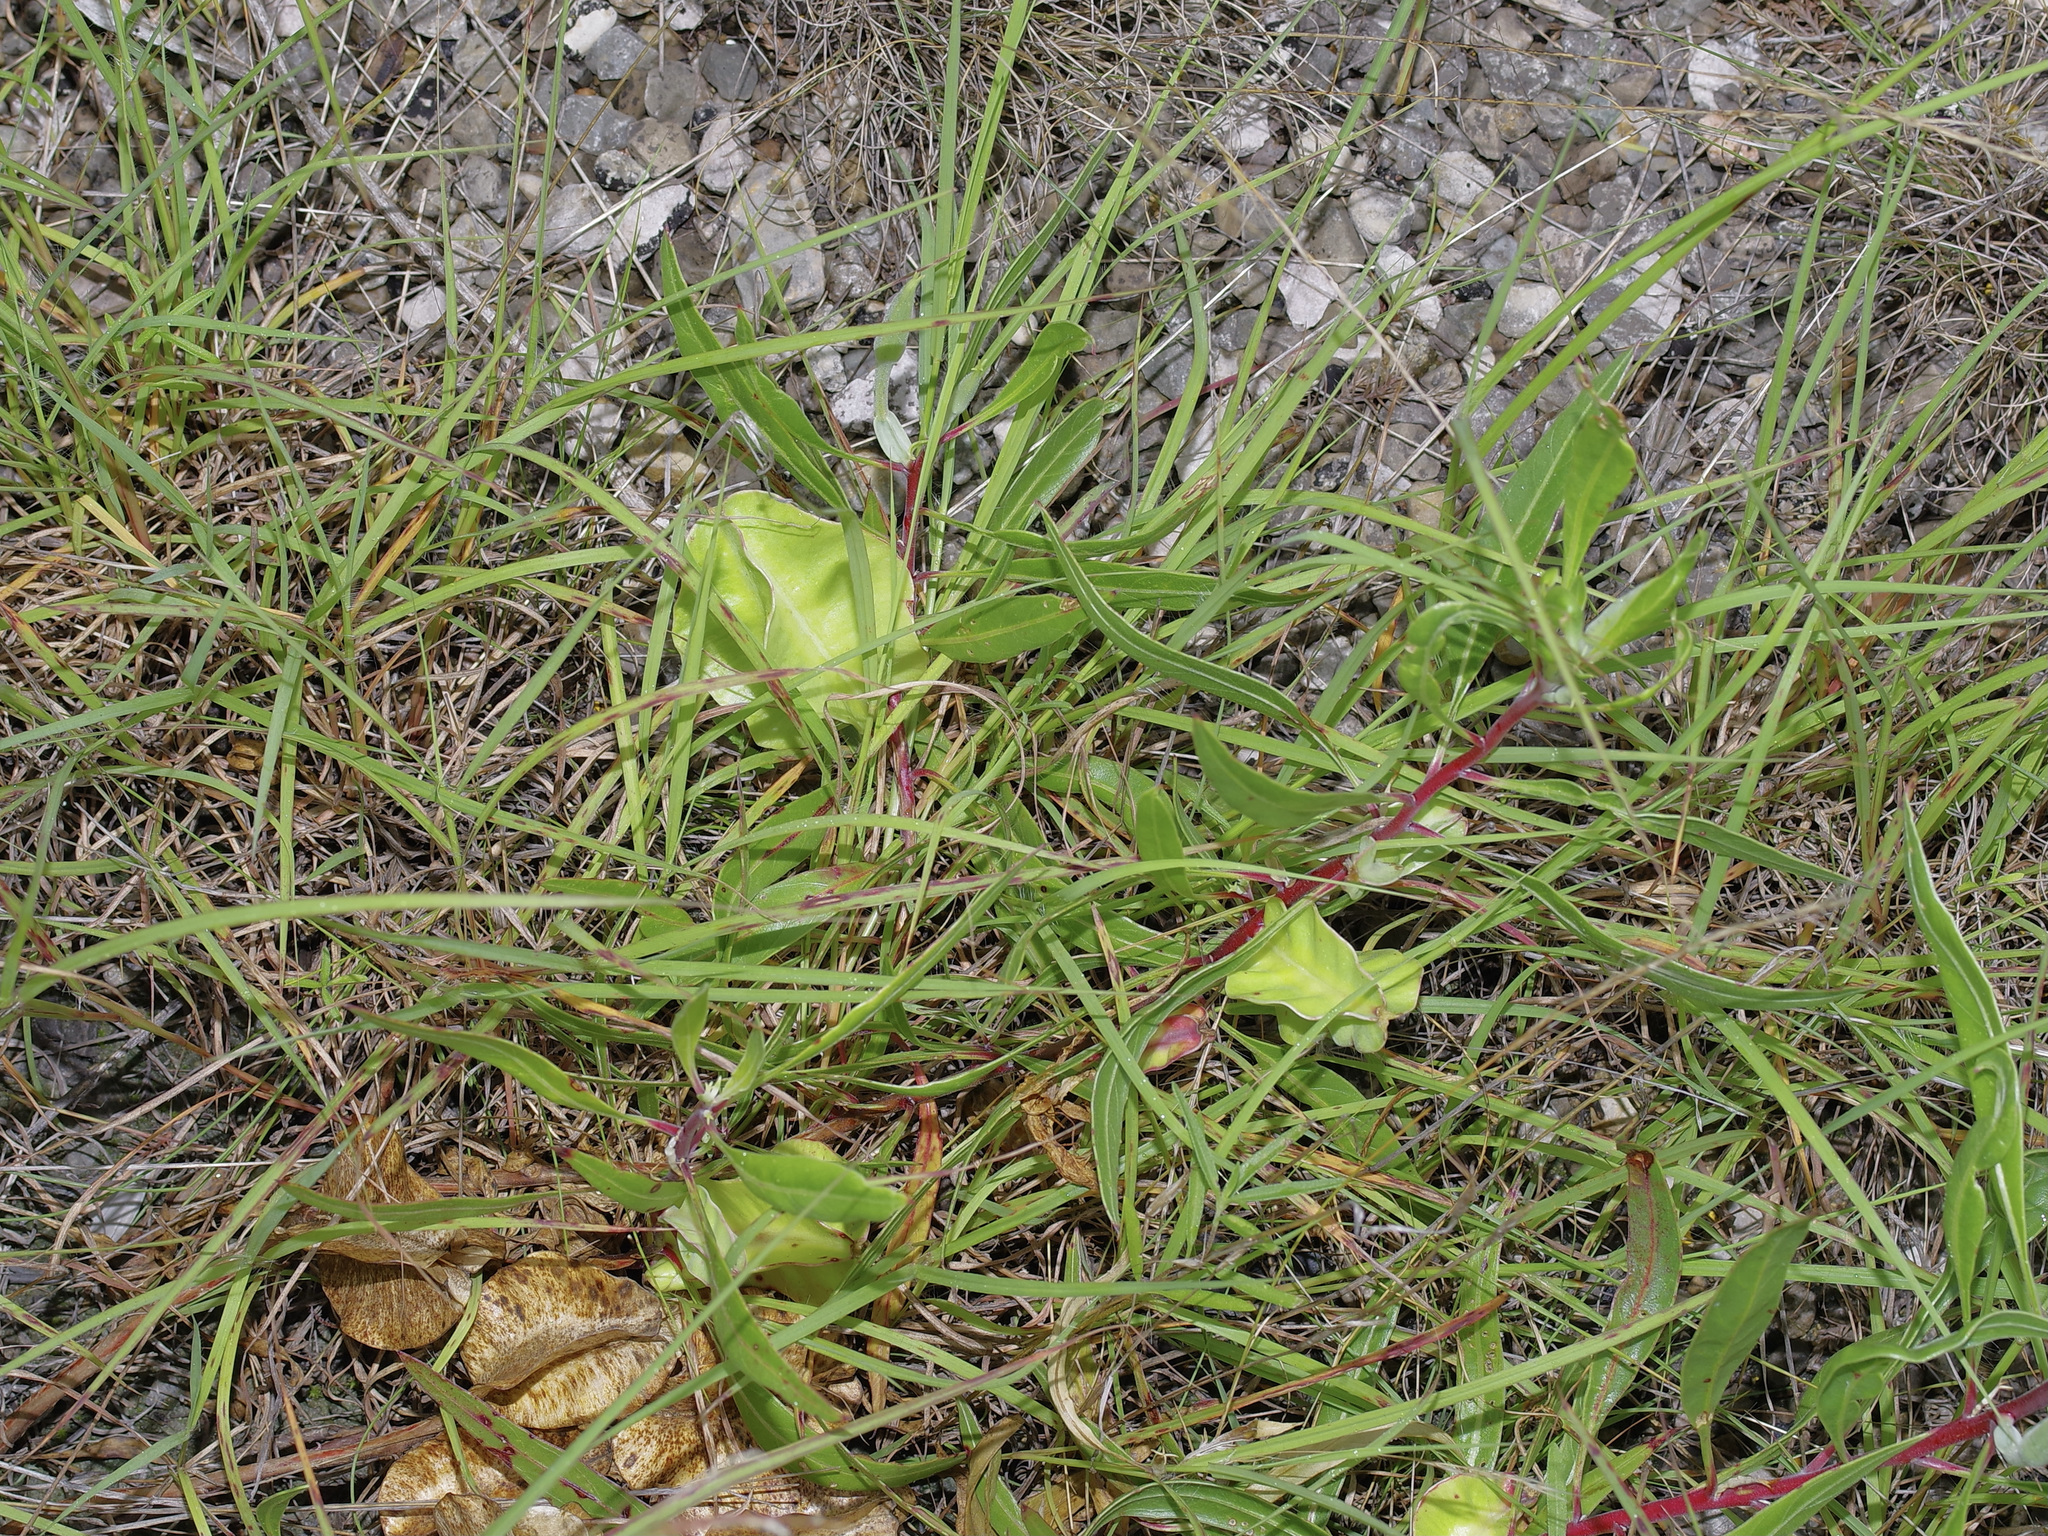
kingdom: Plantae
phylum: Tracheophyta
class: Magnoliopsida
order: Myrtales
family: Onagraceae
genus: Oenothera
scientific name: Oenothera macrocarpa
